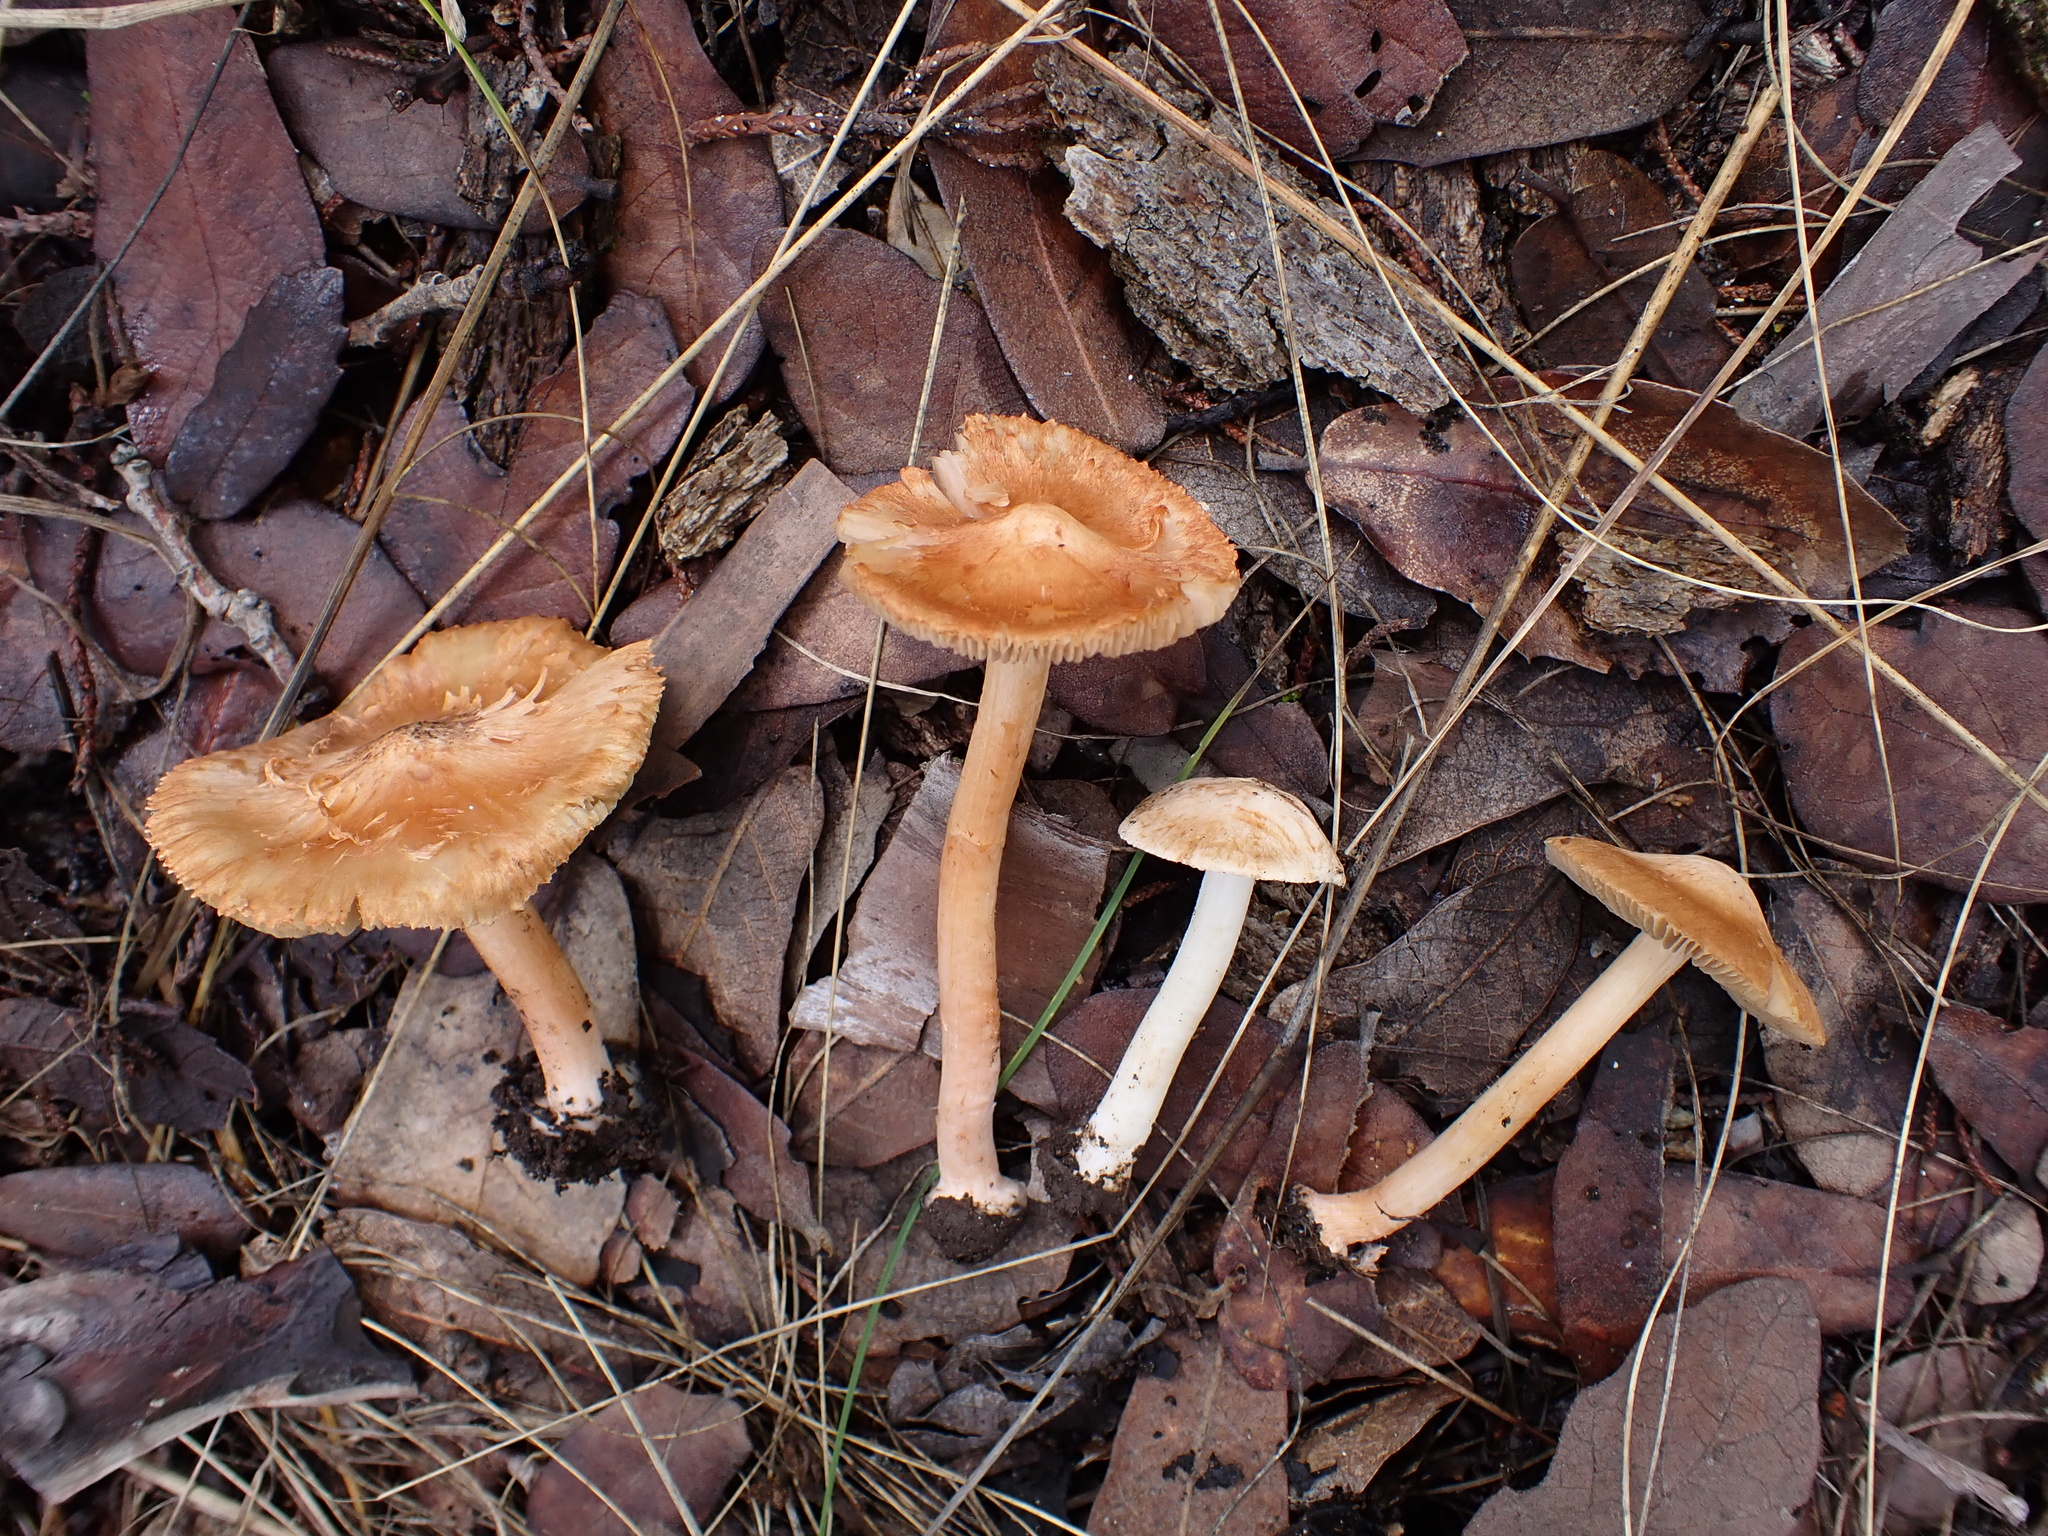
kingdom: Fungi
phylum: Basidiomycota
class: Agaricomycetes
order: Agaricales
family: Inocybaceae
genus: Inocybe
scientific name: Inocybe roseifolia
